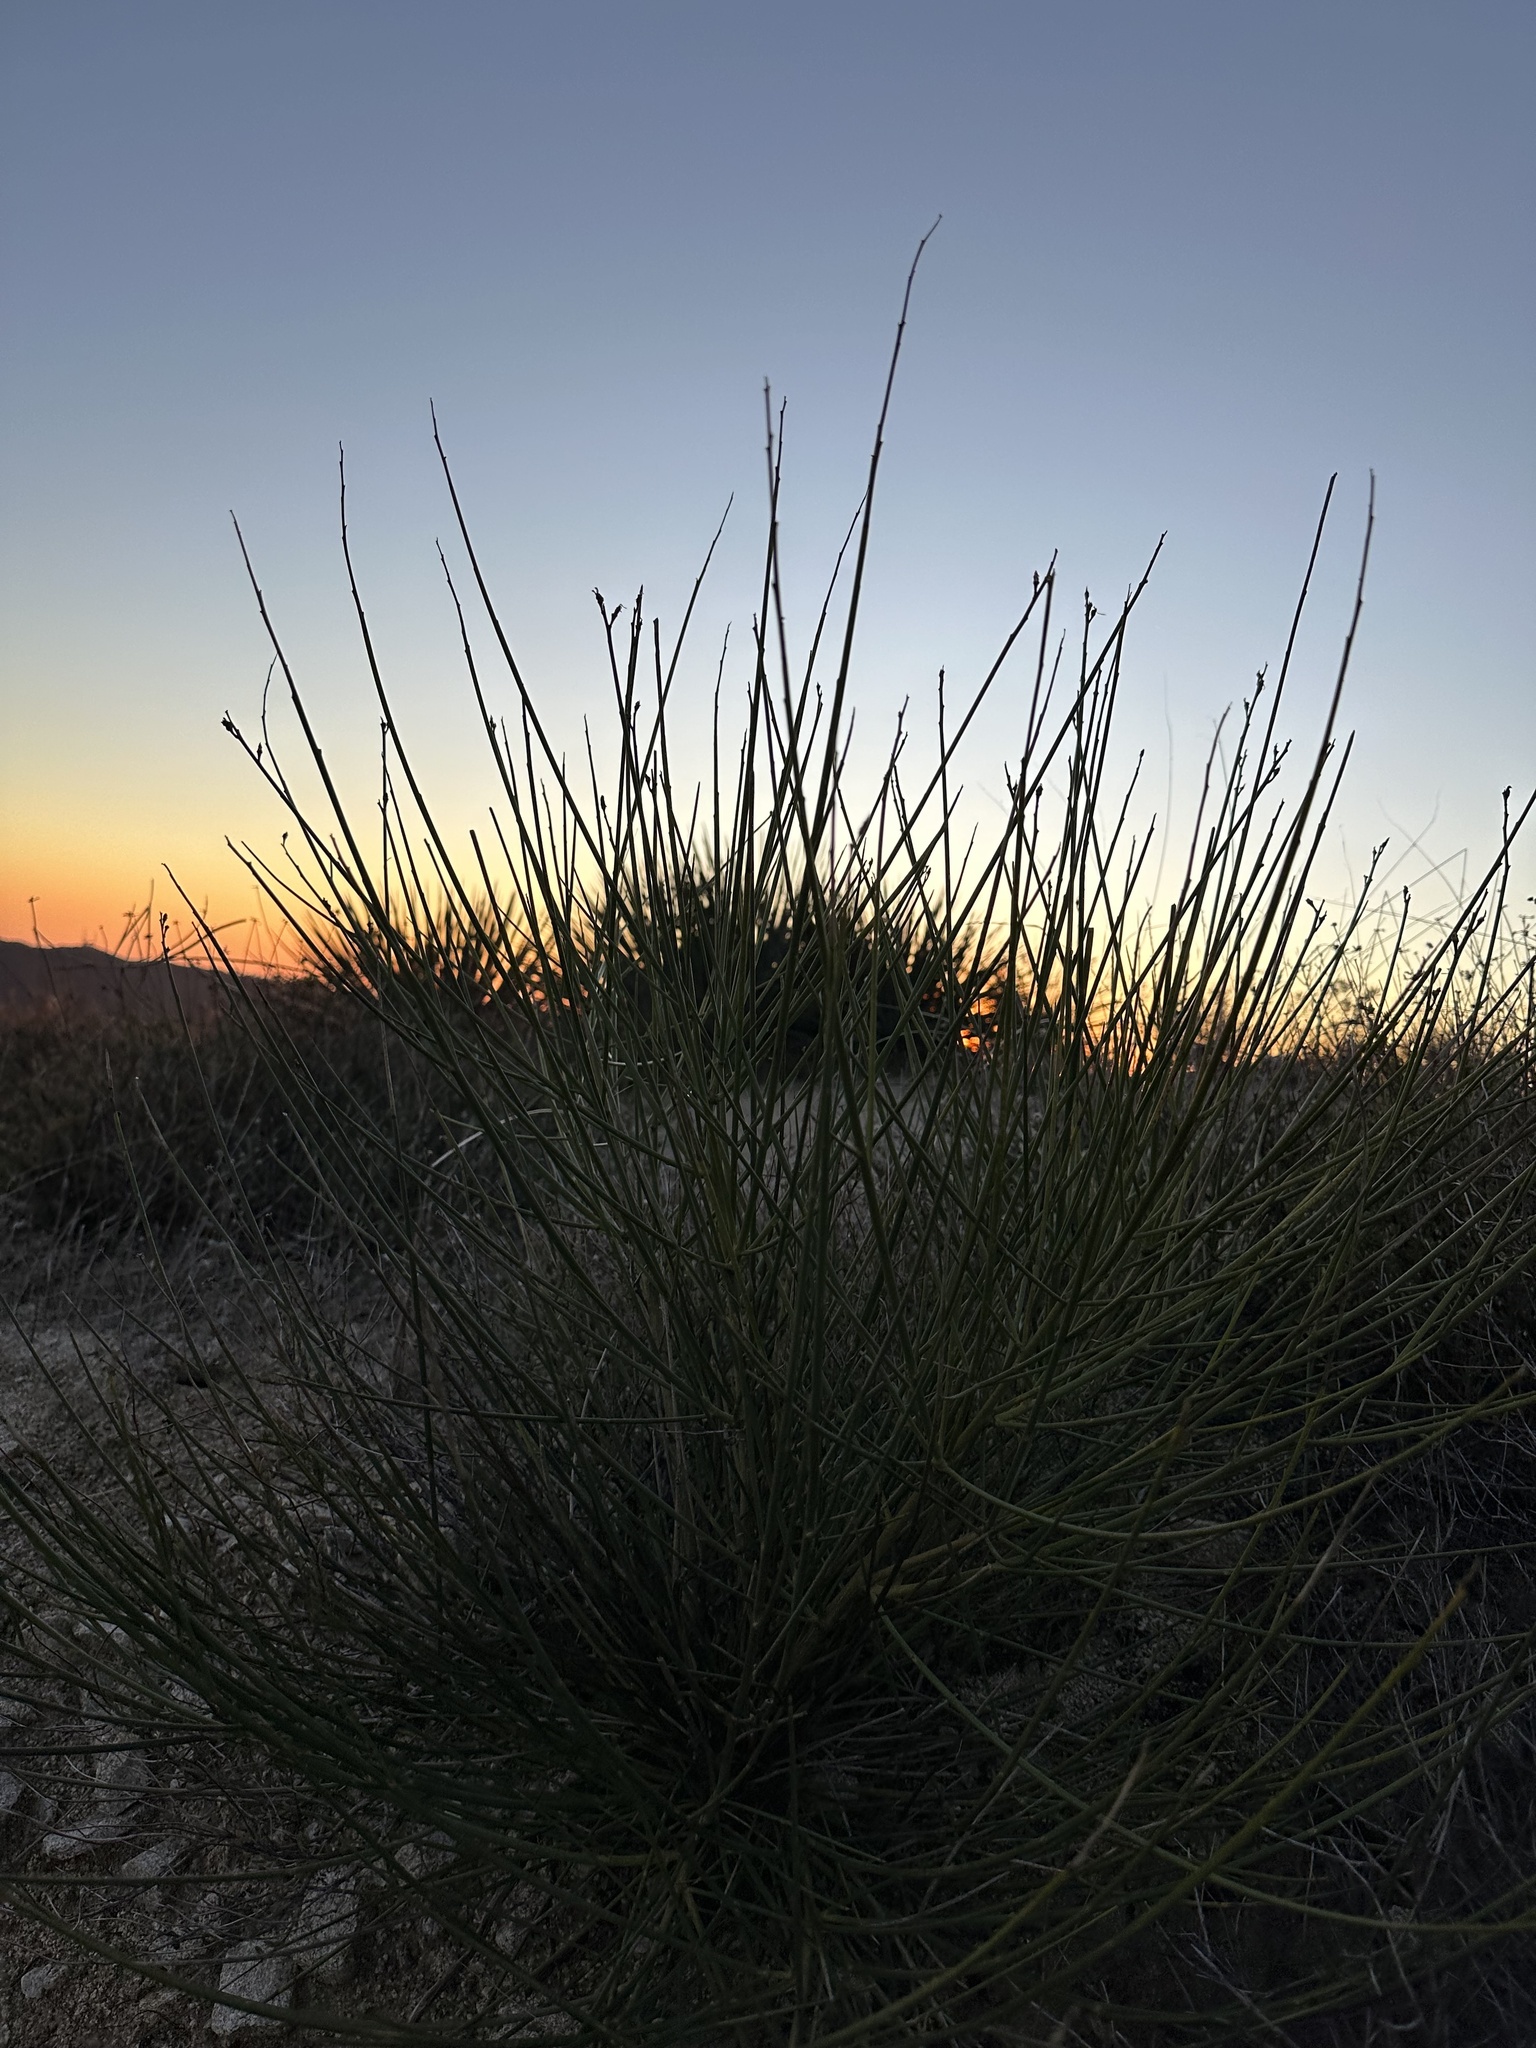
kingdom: Plantae
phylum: Tracheophyta
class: Magnoliopsida
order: Fabales
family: Fabaceae
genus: Spartium
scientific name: Spartium junceum
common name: Spanish broom
